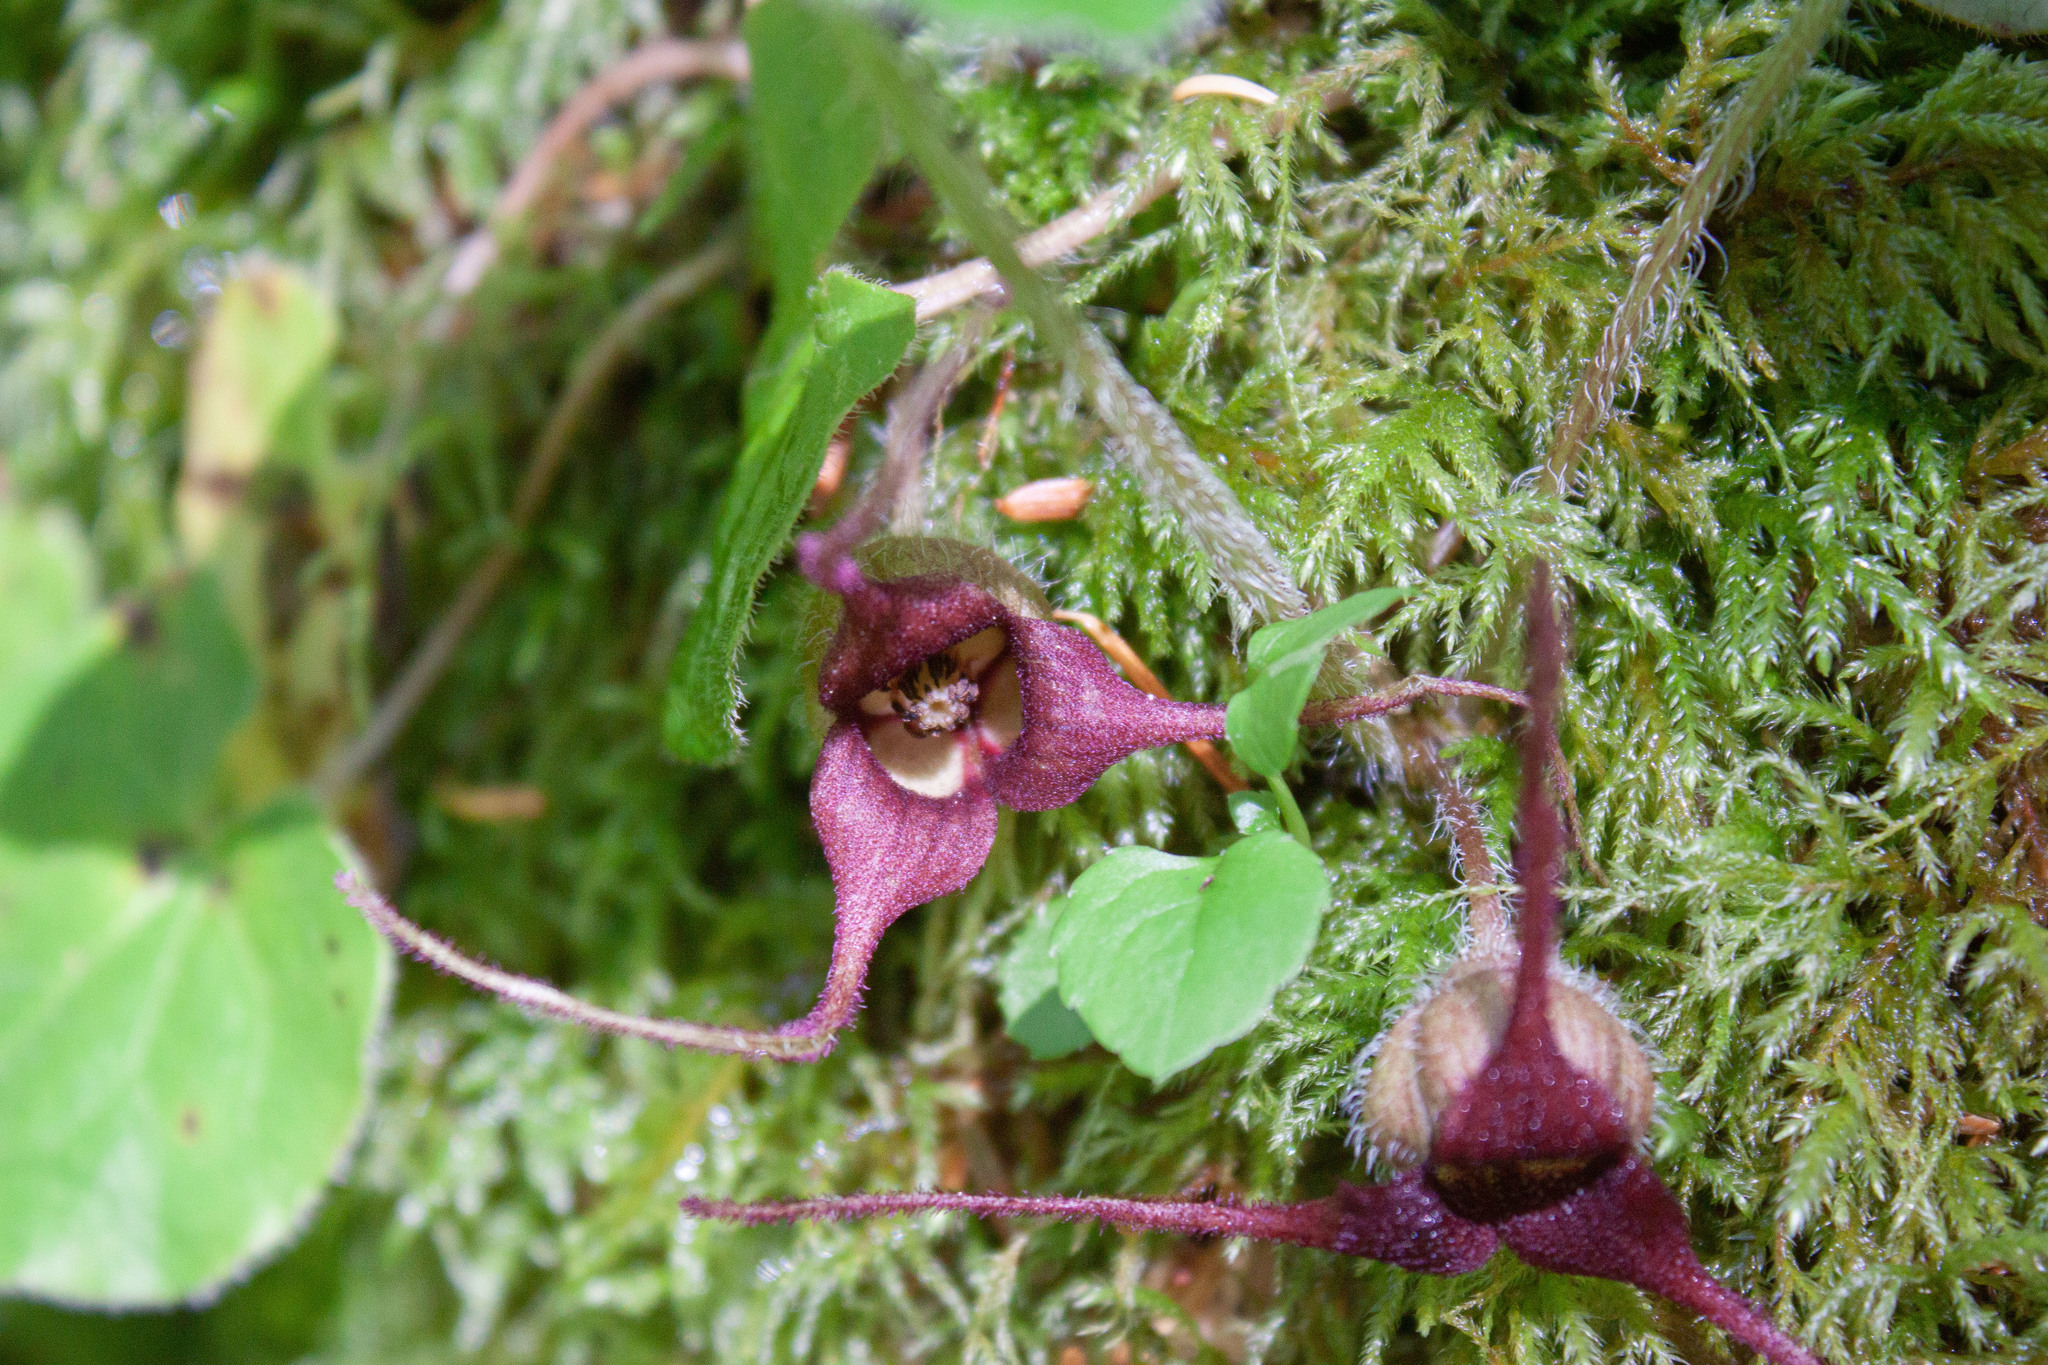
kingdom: Plantae
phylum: Tracheophyta
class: Magnoliopsida
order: Piperales
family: Aristolochiaceae
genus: Asarum
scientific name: Asarum caudatum
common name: Wild ginger
